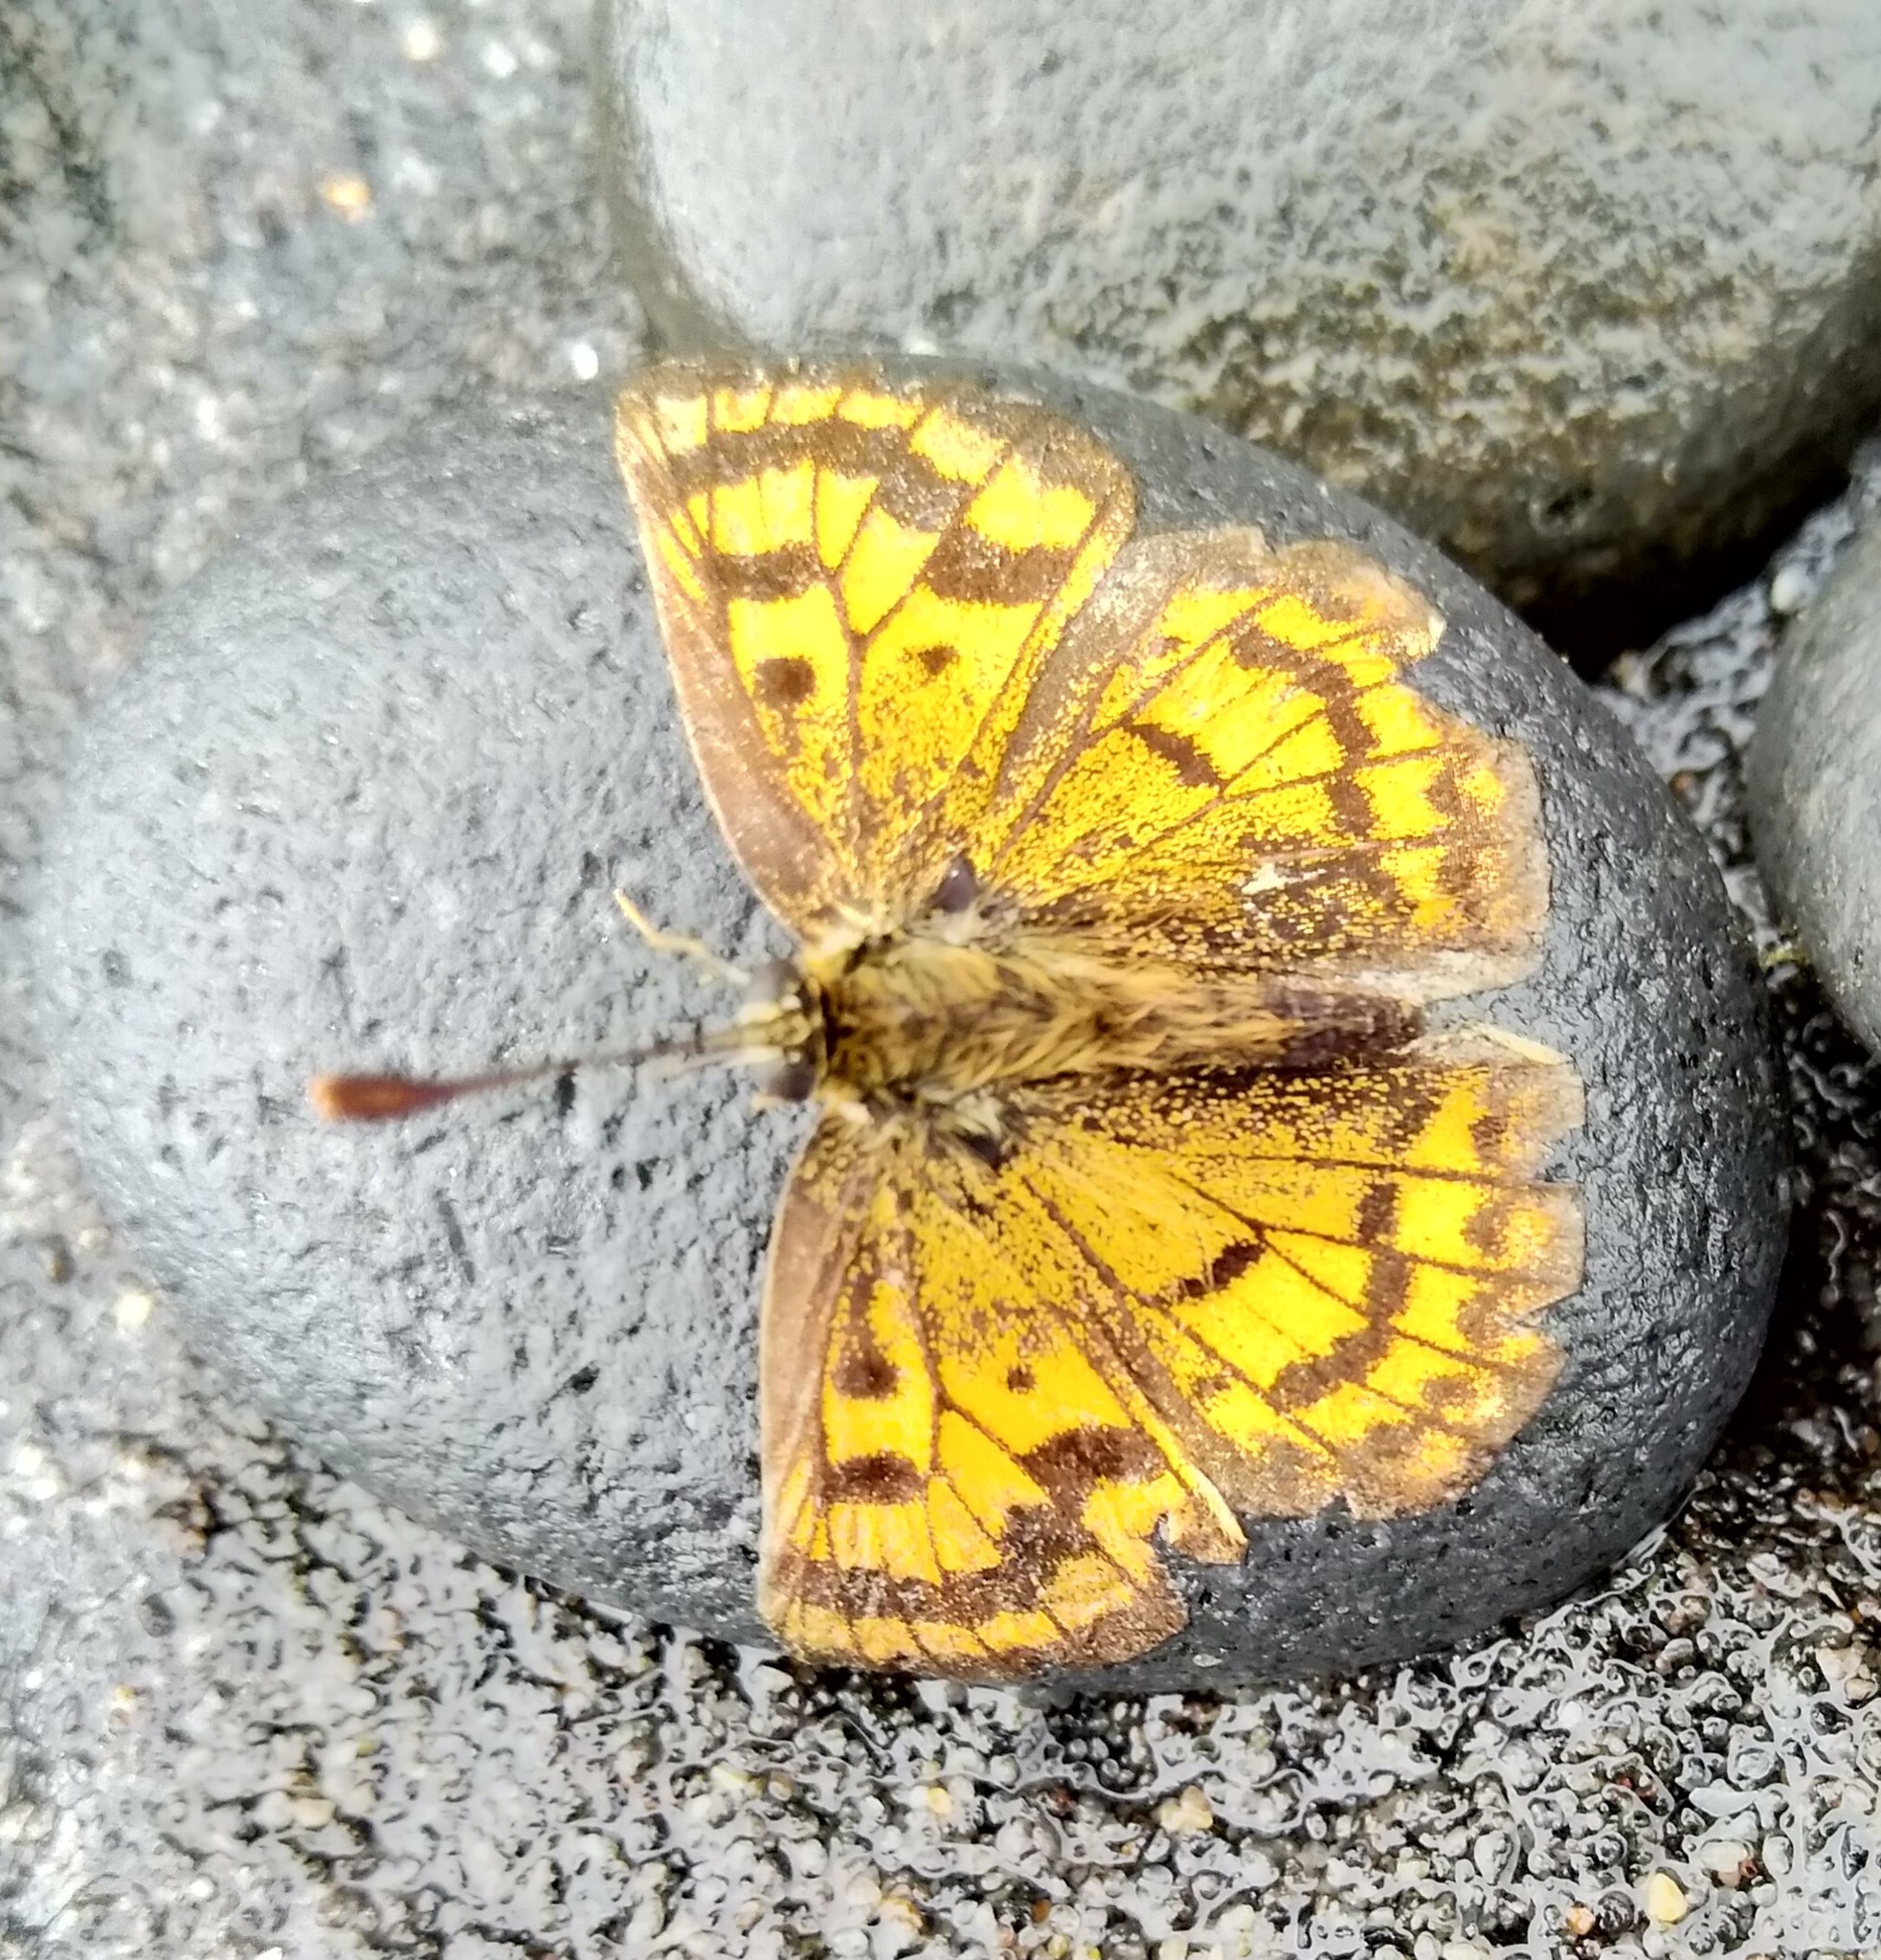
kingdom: Animalia
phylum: Arthropoda
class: Insecta
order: Lepidoptera
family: Lycaenidae
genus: Lycaena
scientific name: Lycaena salustius
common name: North island coastal copper
